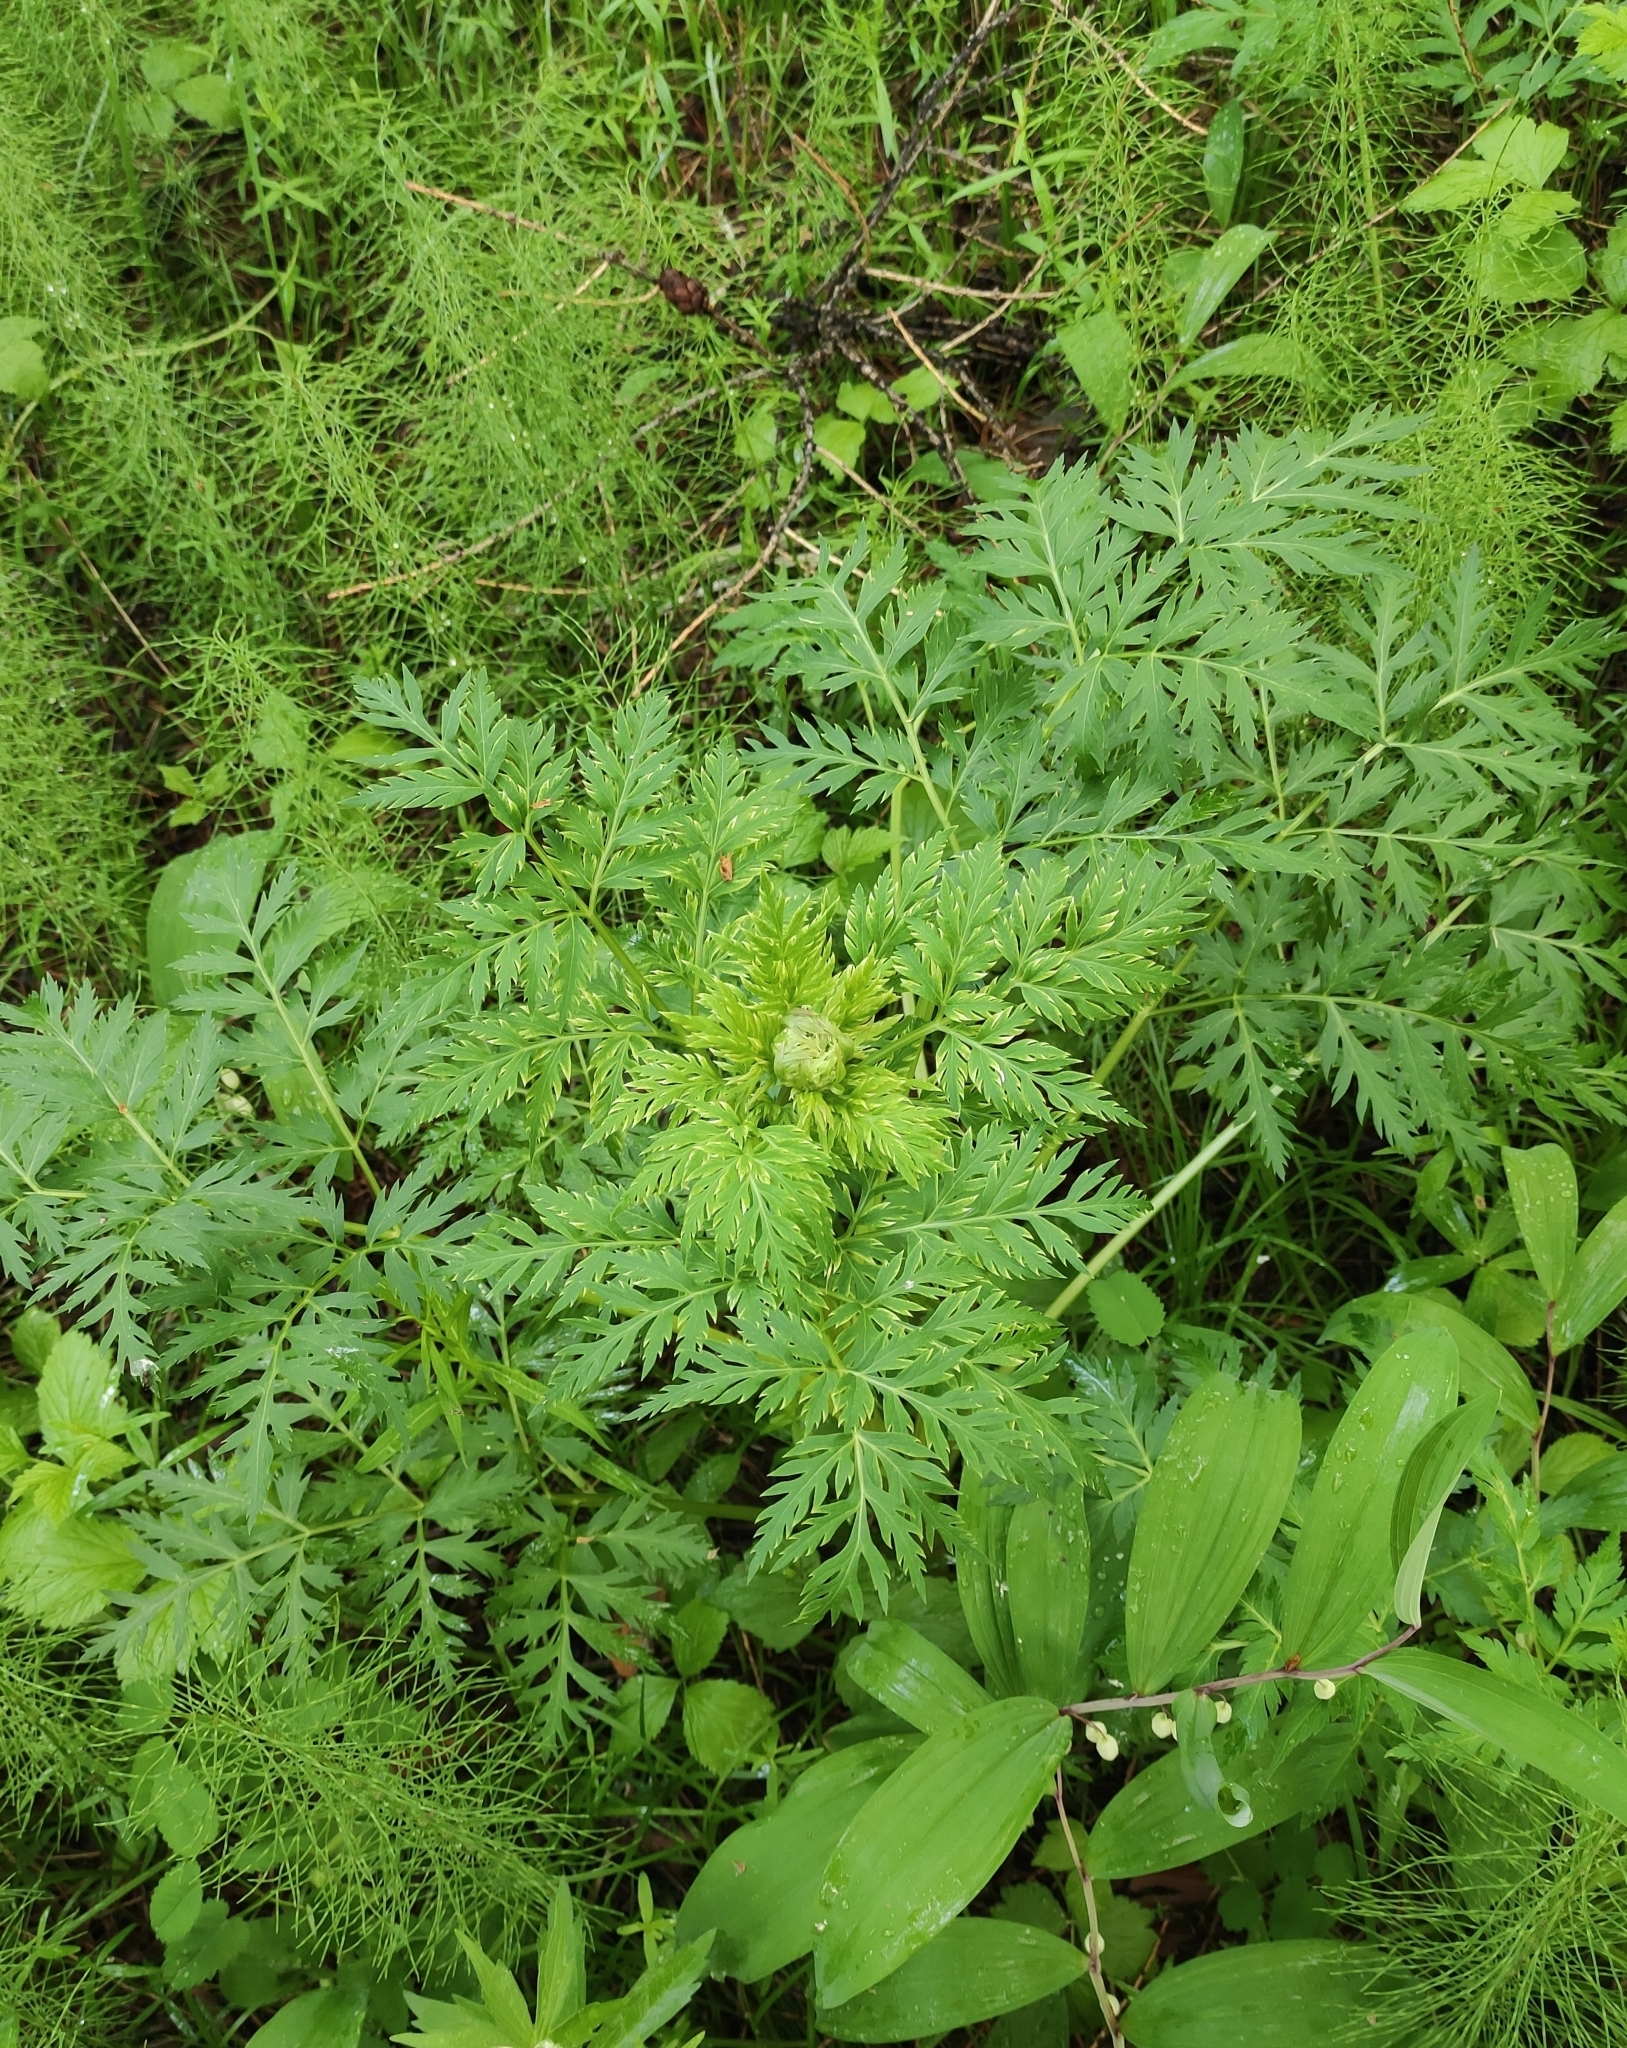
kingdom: Plantae
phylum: Tracheophyta
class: Magnoliopsida
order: Apiales
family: Apiaceae
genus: Pleurospermum
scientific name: Pleurospermum uralense
